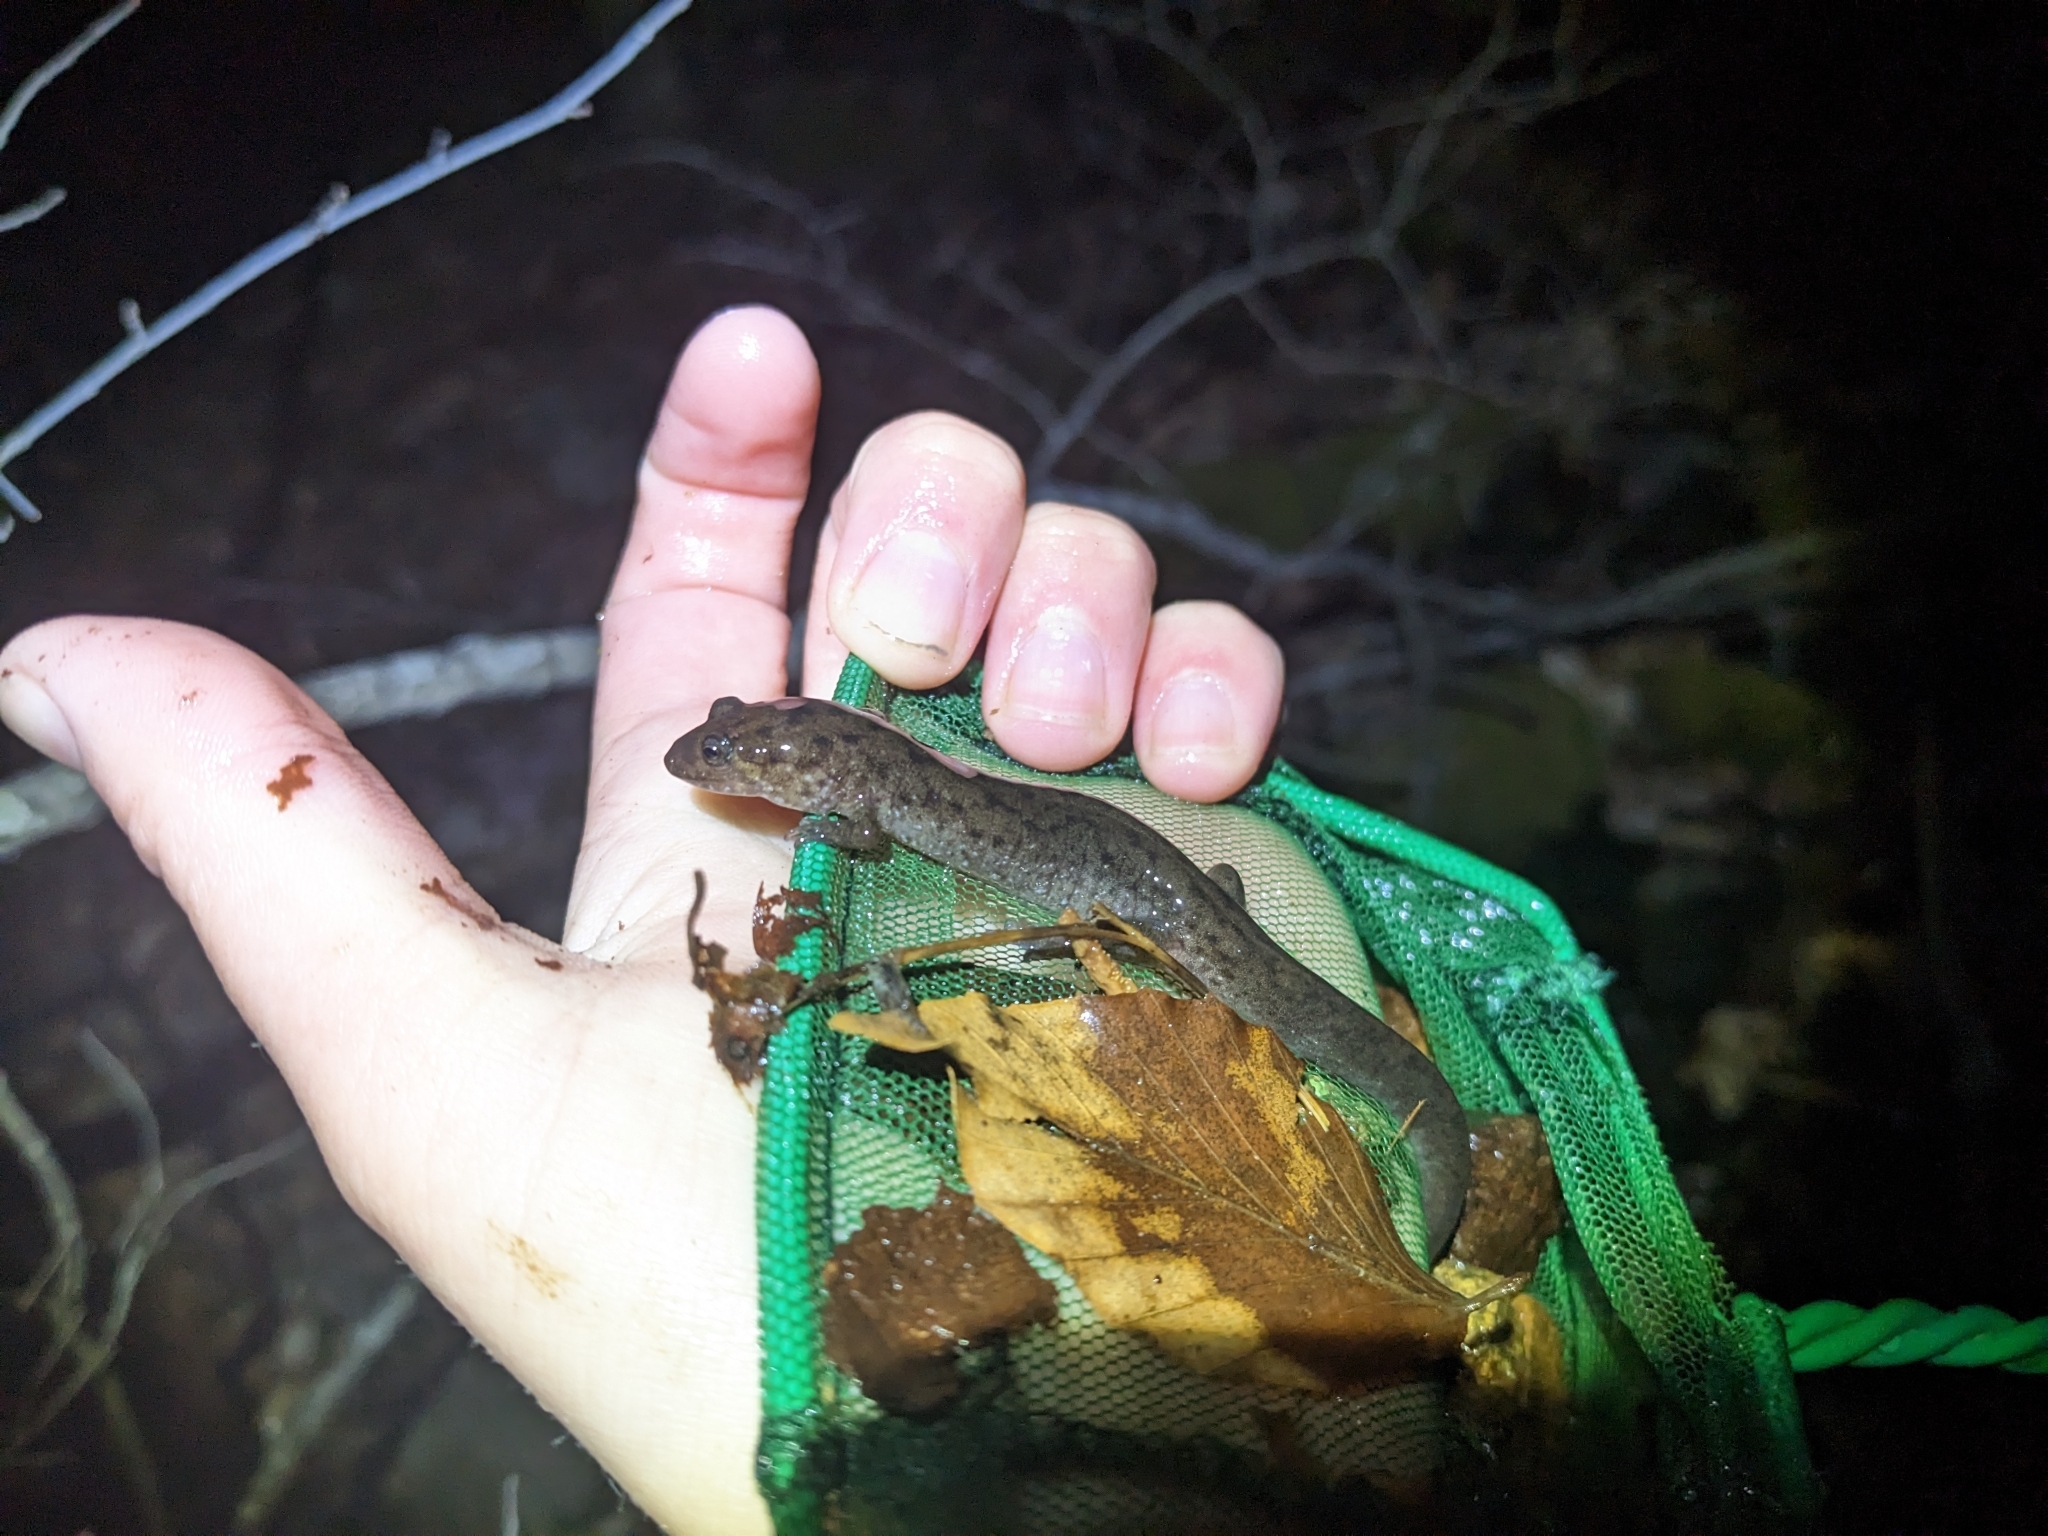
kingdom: Animalia
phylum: Chordata
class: Amphibia
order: Caudata
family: Plethodontidae
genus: Desmognathus
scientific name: Desmognathus monticola
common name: Seal salamander
